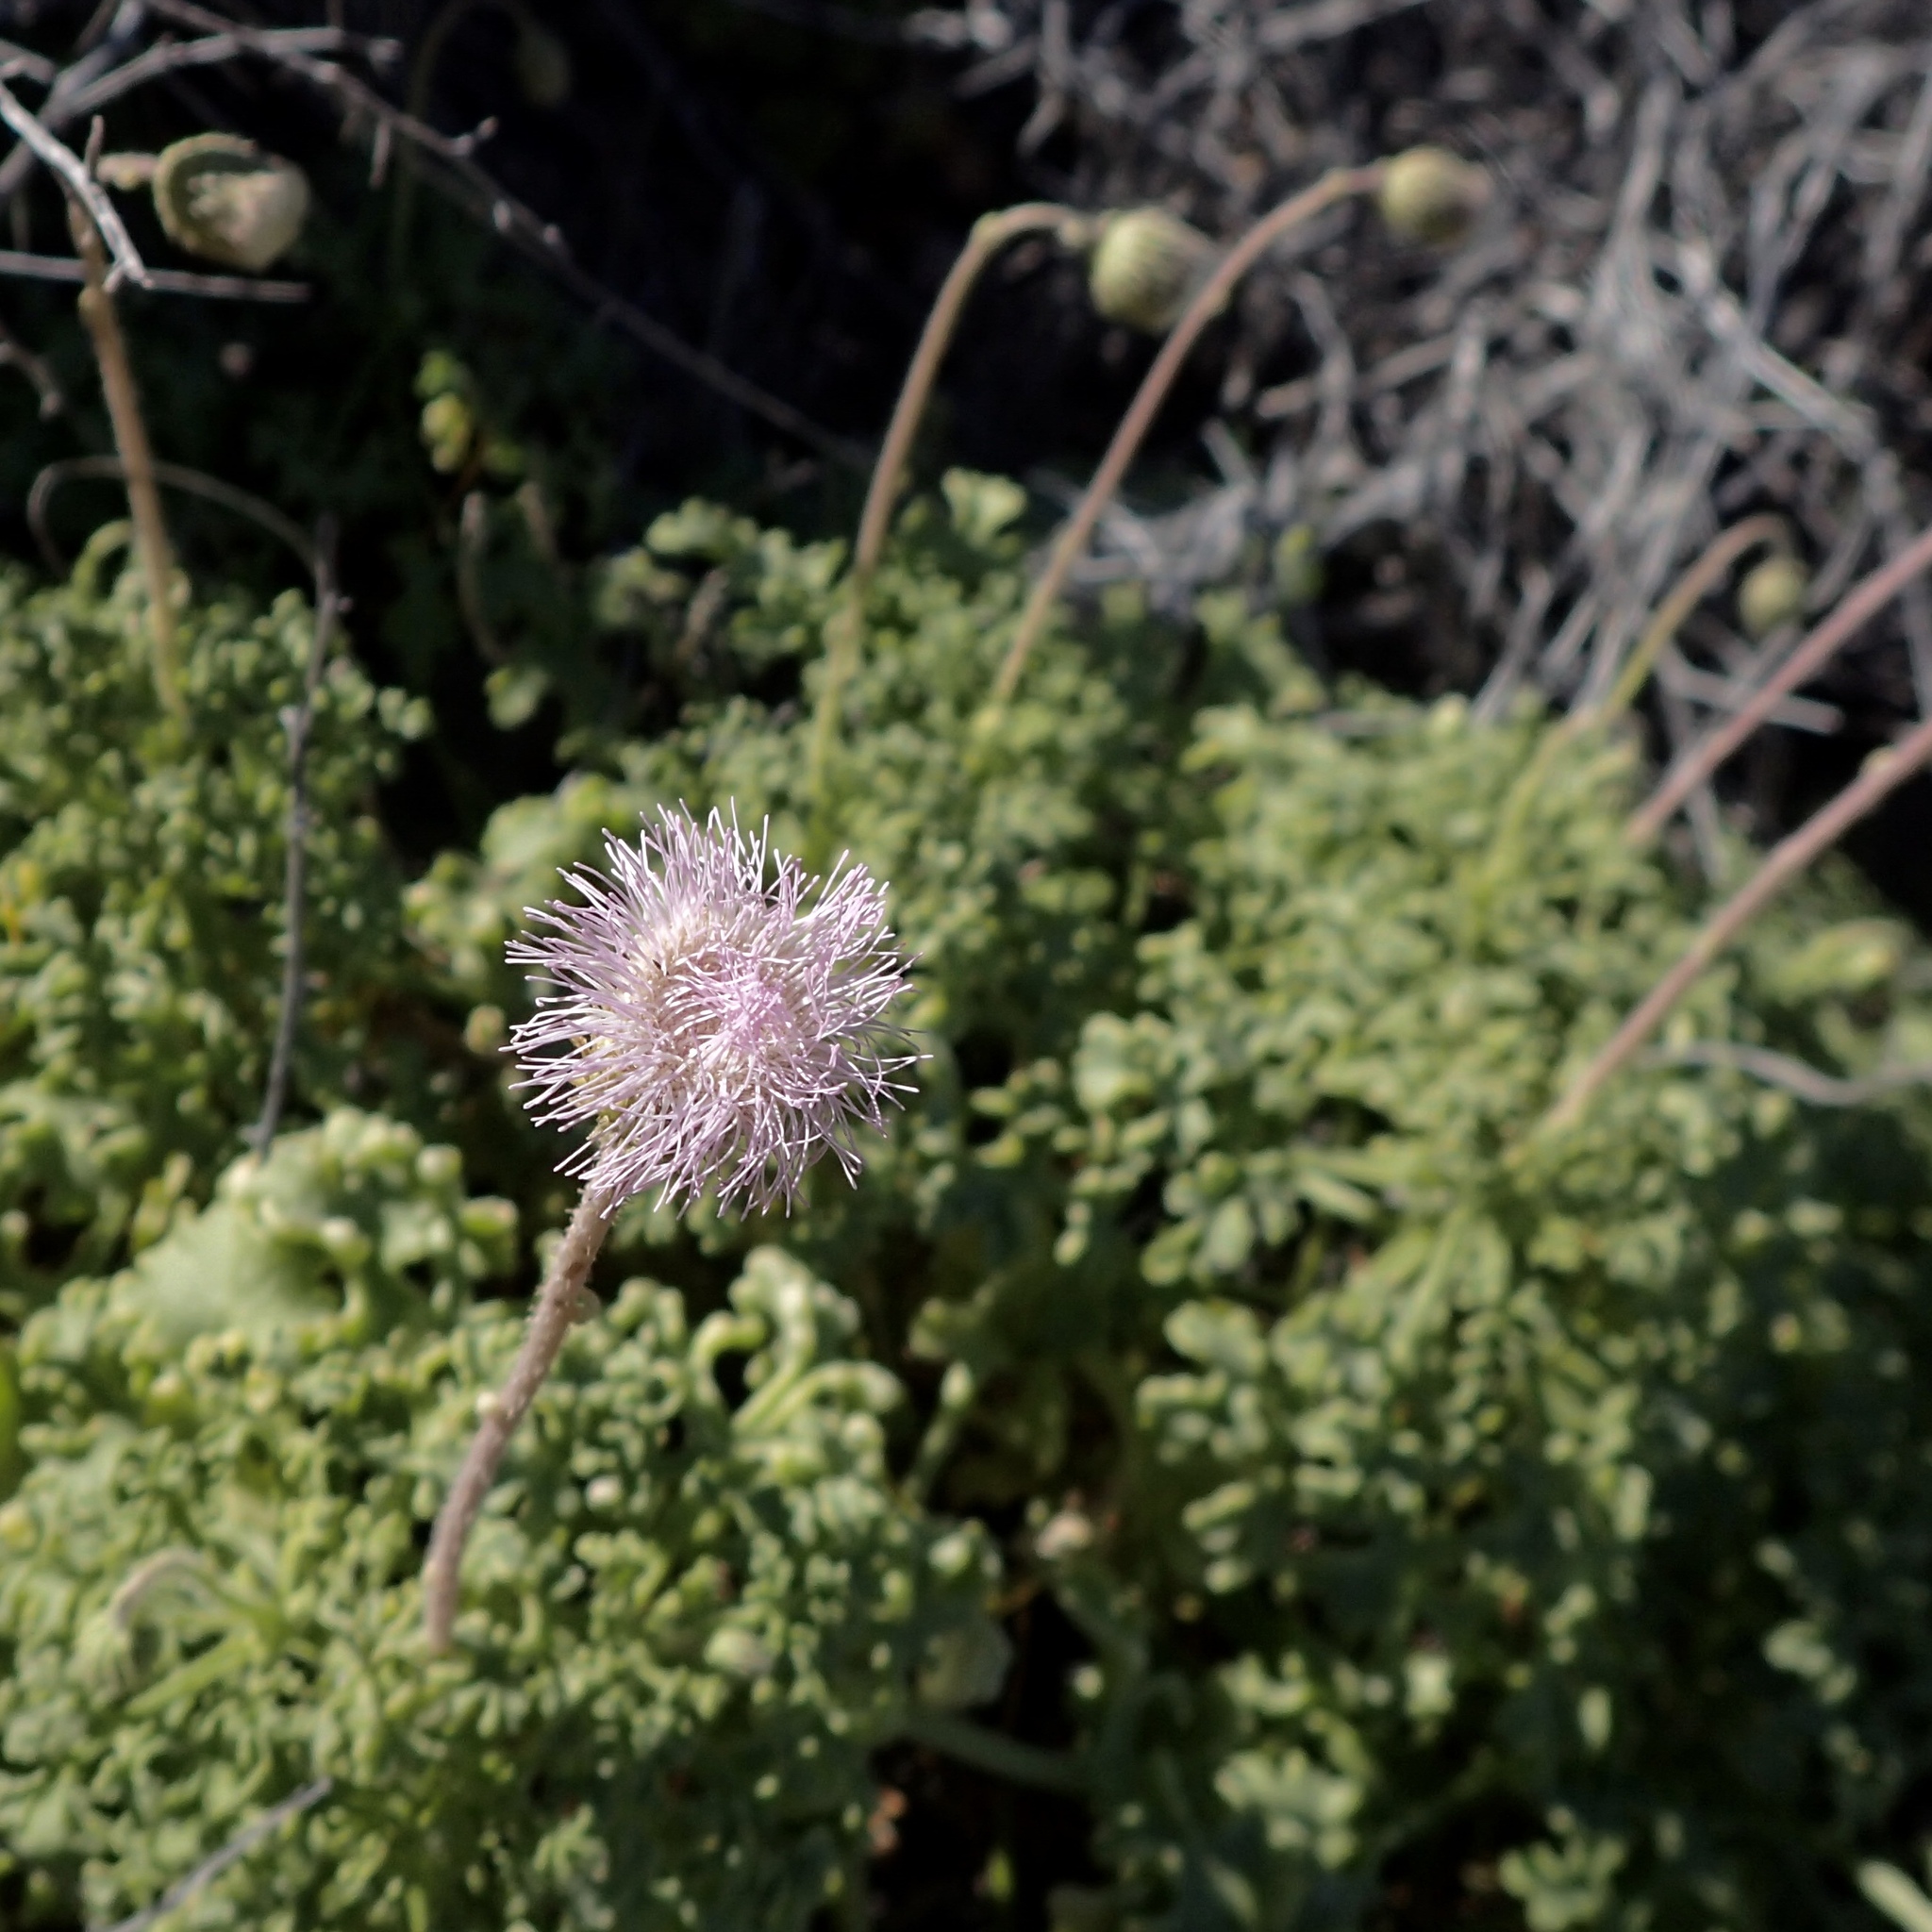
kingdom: Plantae
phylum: Tracheophyta
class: Magnoliopsida
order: Asterales
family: Asteraceae
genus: Hofmeisteria
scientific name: Hofmeisteria fasciculata
